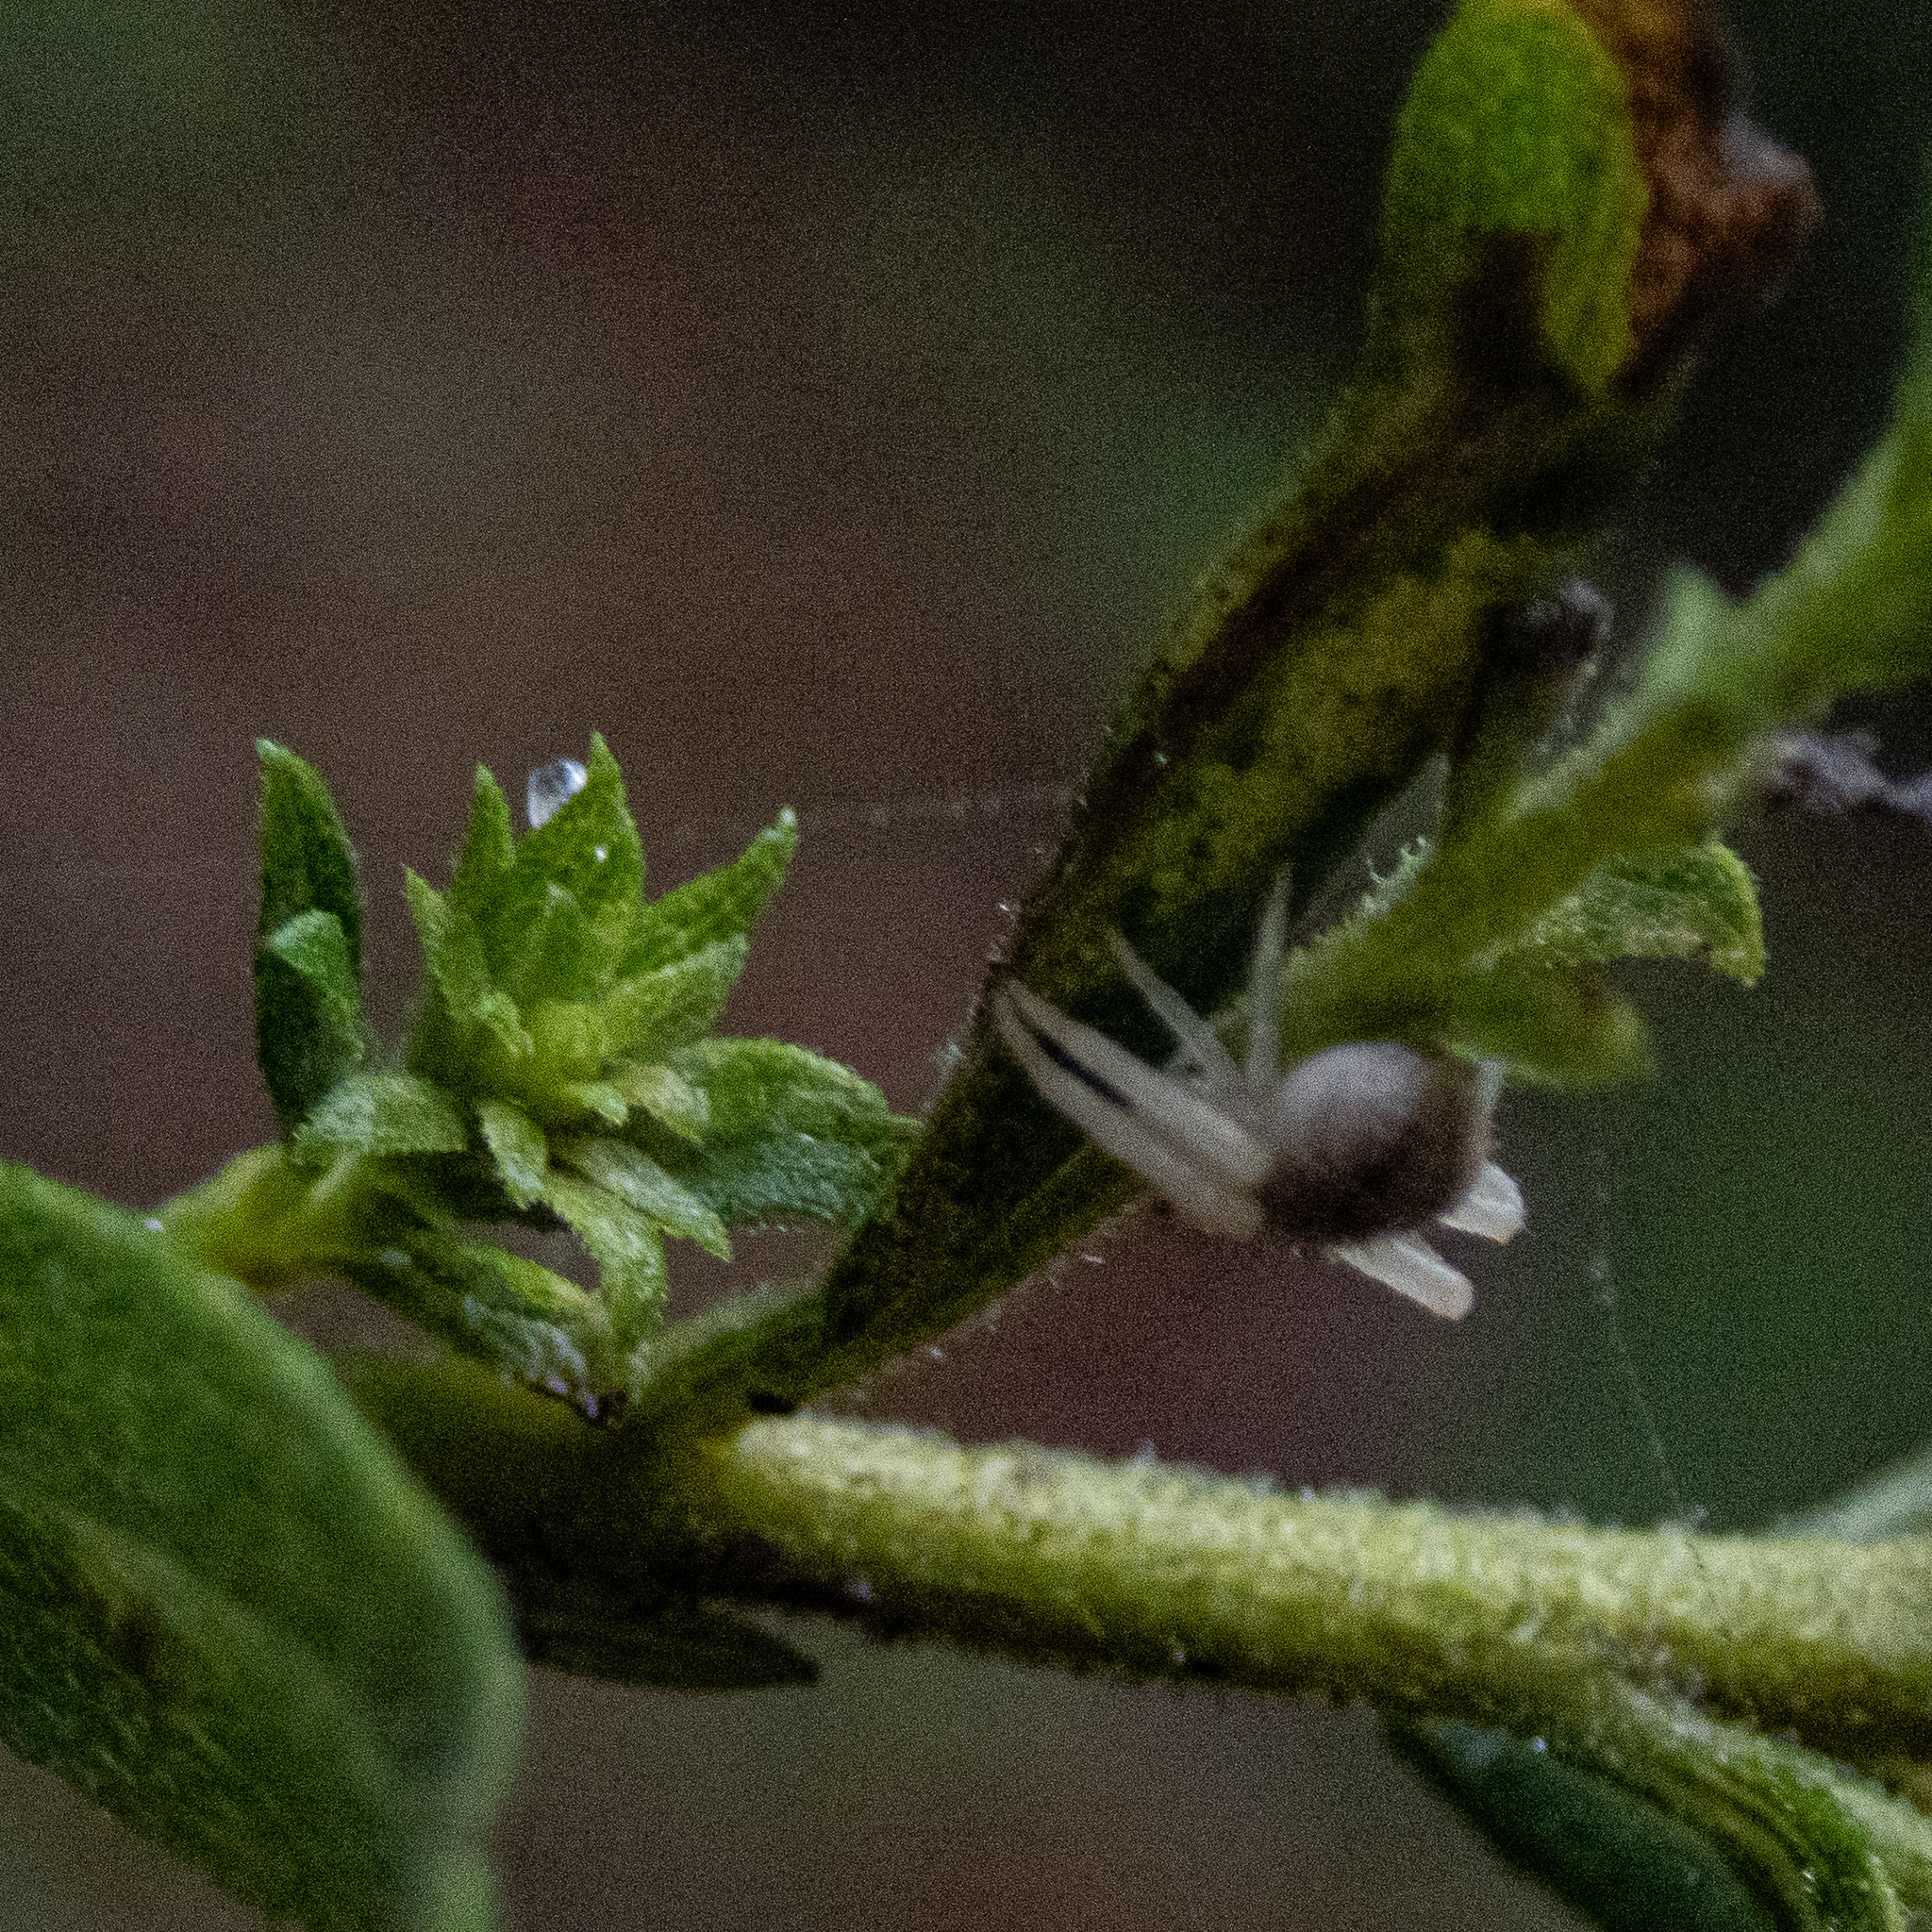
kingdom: Animalia
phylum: Arthropoda
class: Arachnida
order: Araneae
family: Thomisidae
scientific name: Thomisidae
